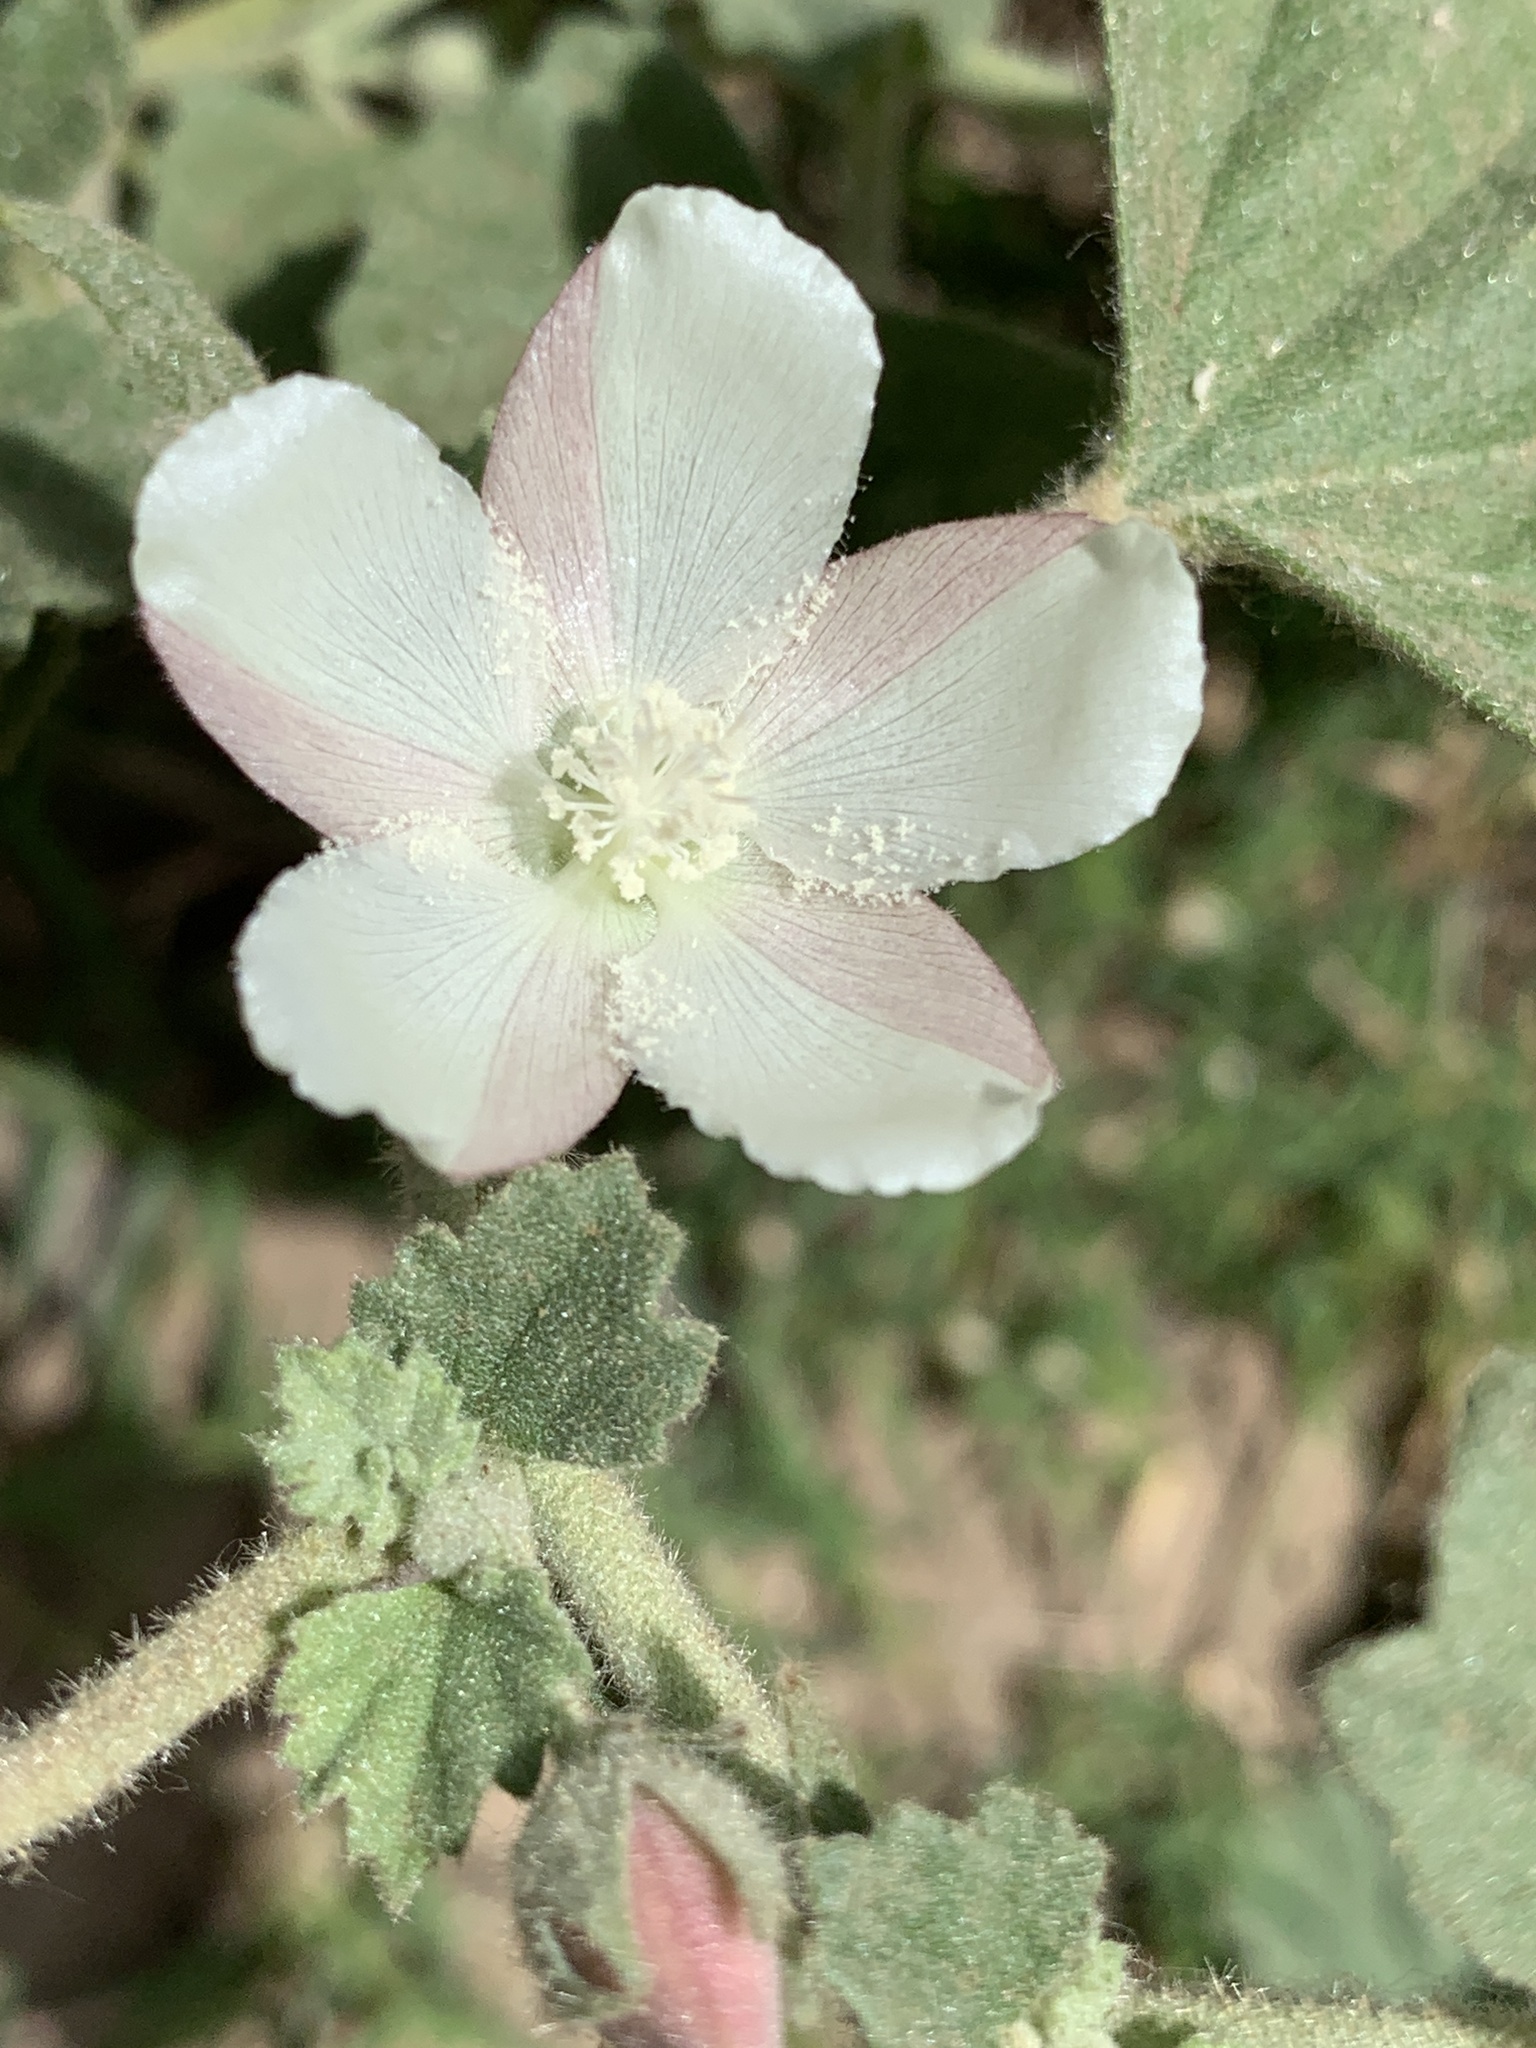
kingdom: Plantae
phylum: Tracheophyta
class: Magnoliopsida
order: Malvales
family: Malvaceae
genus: Malvella
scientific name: Malvella leprosa
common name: Alkali-mallow
